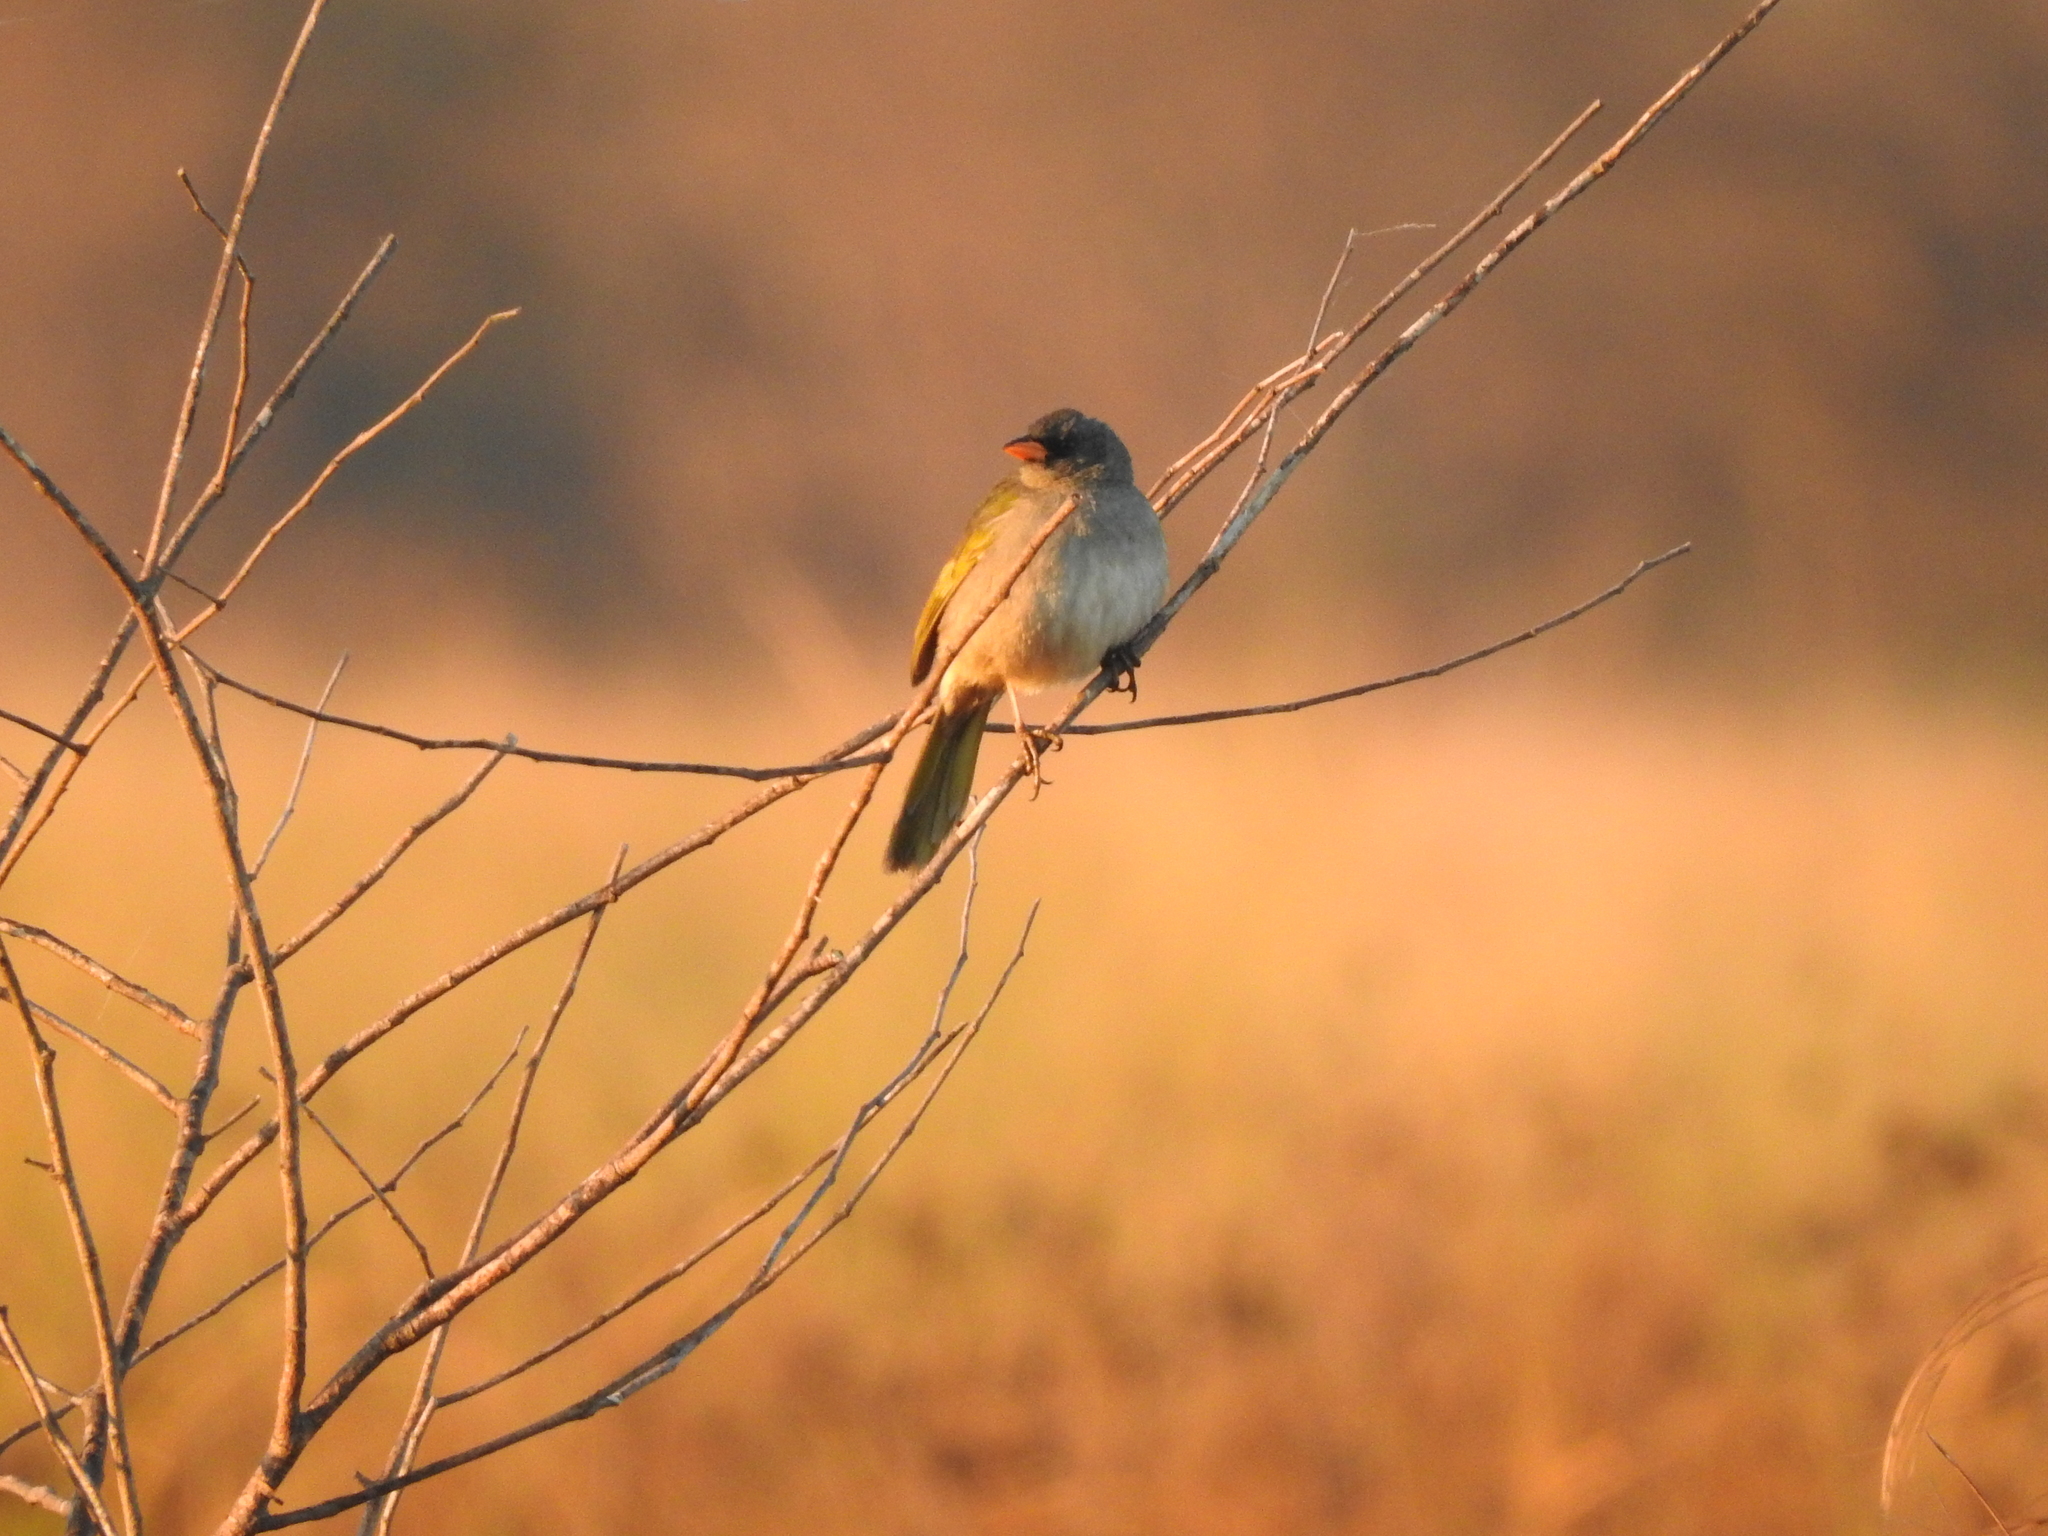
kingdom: Animalia
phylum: Chordata
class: Aves
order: Passeriformes
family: Thraupidae
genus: Embernagra
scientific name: Embernagra platensis
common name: Pampa finch
